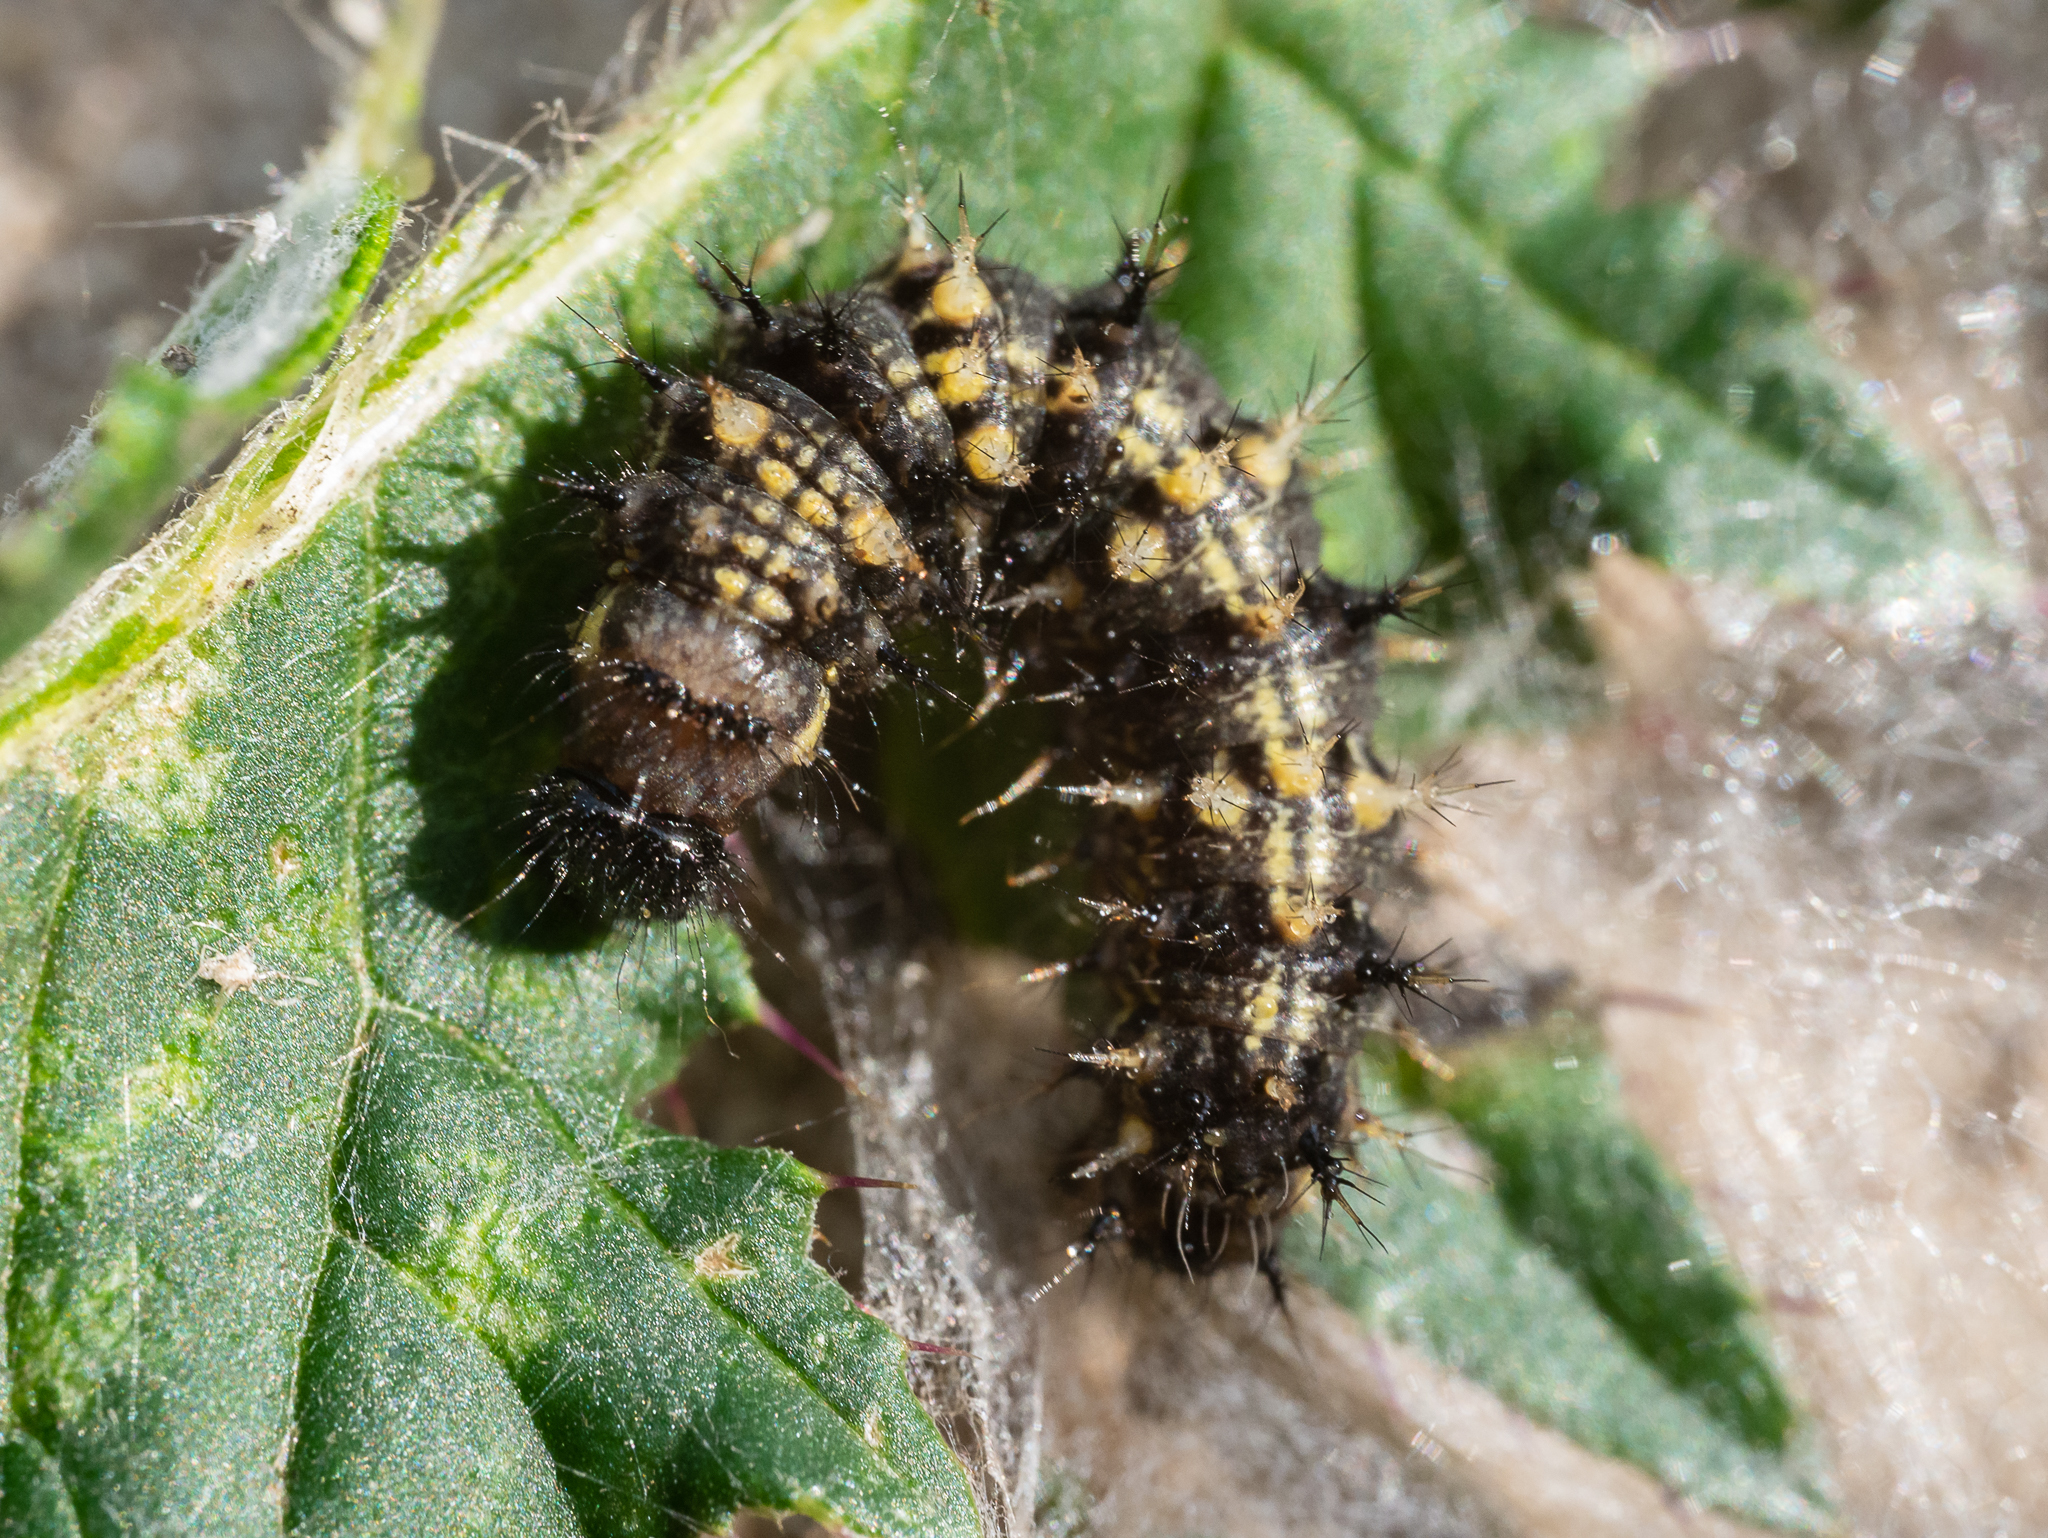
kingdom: Animalia
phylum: Arthropoda
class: Insecta
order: Lepidoptera
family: Nymphalidae
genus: Vanessa
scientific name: Vanessa cardui
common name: Painted lady
